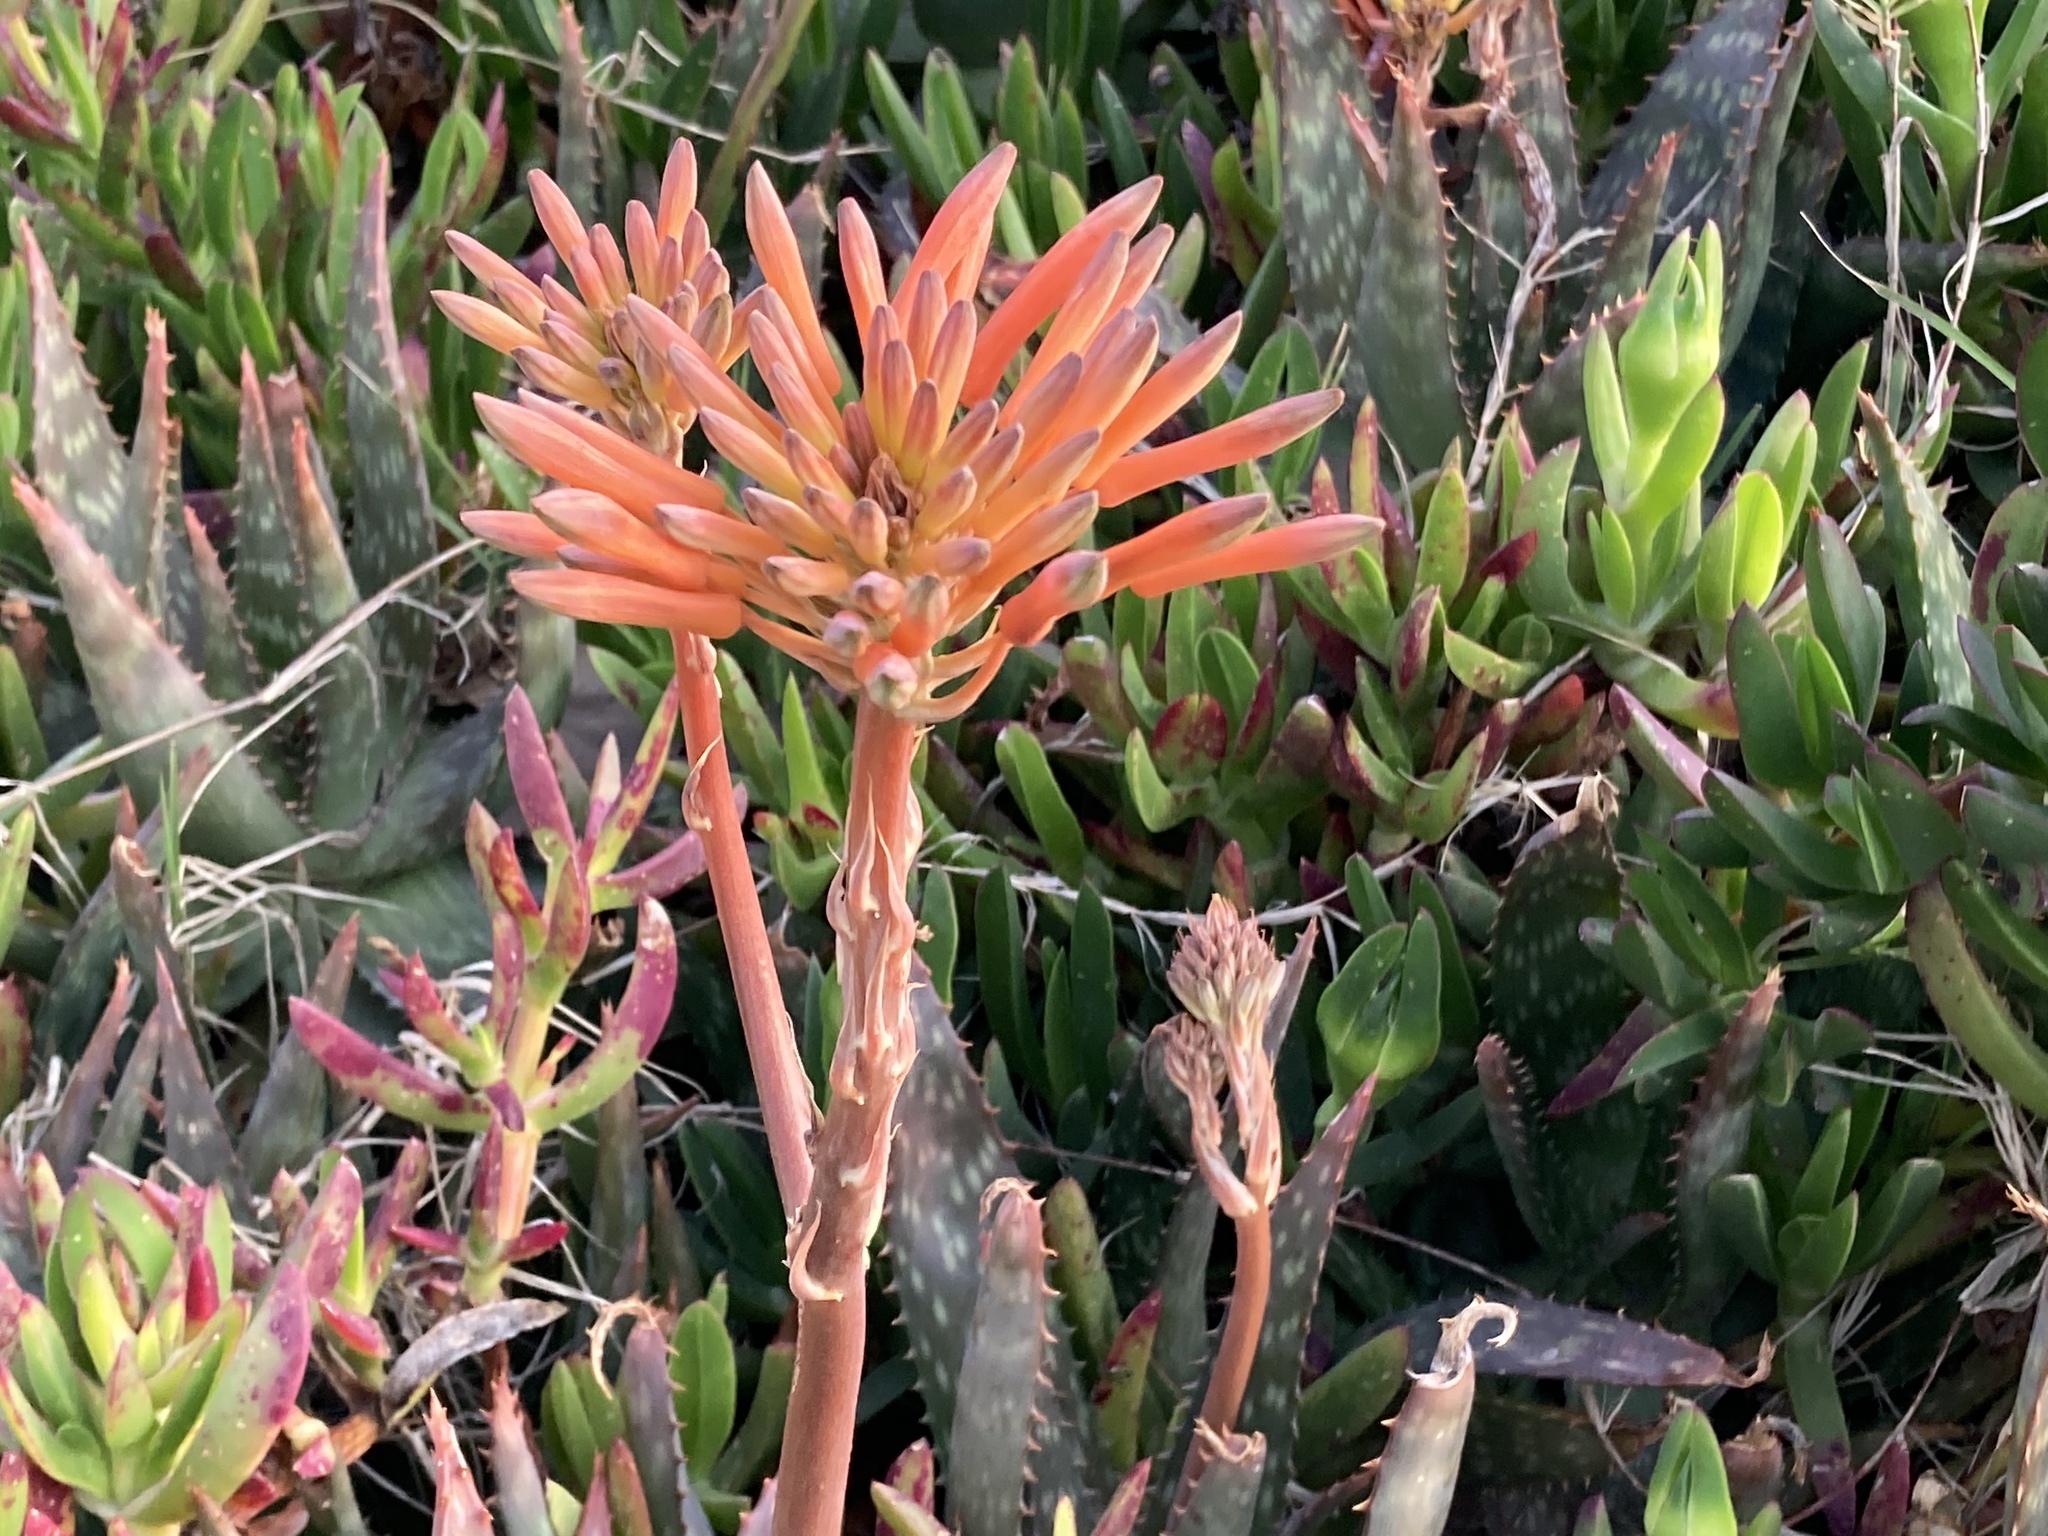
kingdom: Plantae
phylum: Tracheophyta
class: Liliopsida
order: Asparagales
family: Asphodelaceae
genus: Aloe
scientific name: Aloe maculata
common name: Broadleaf aloe
